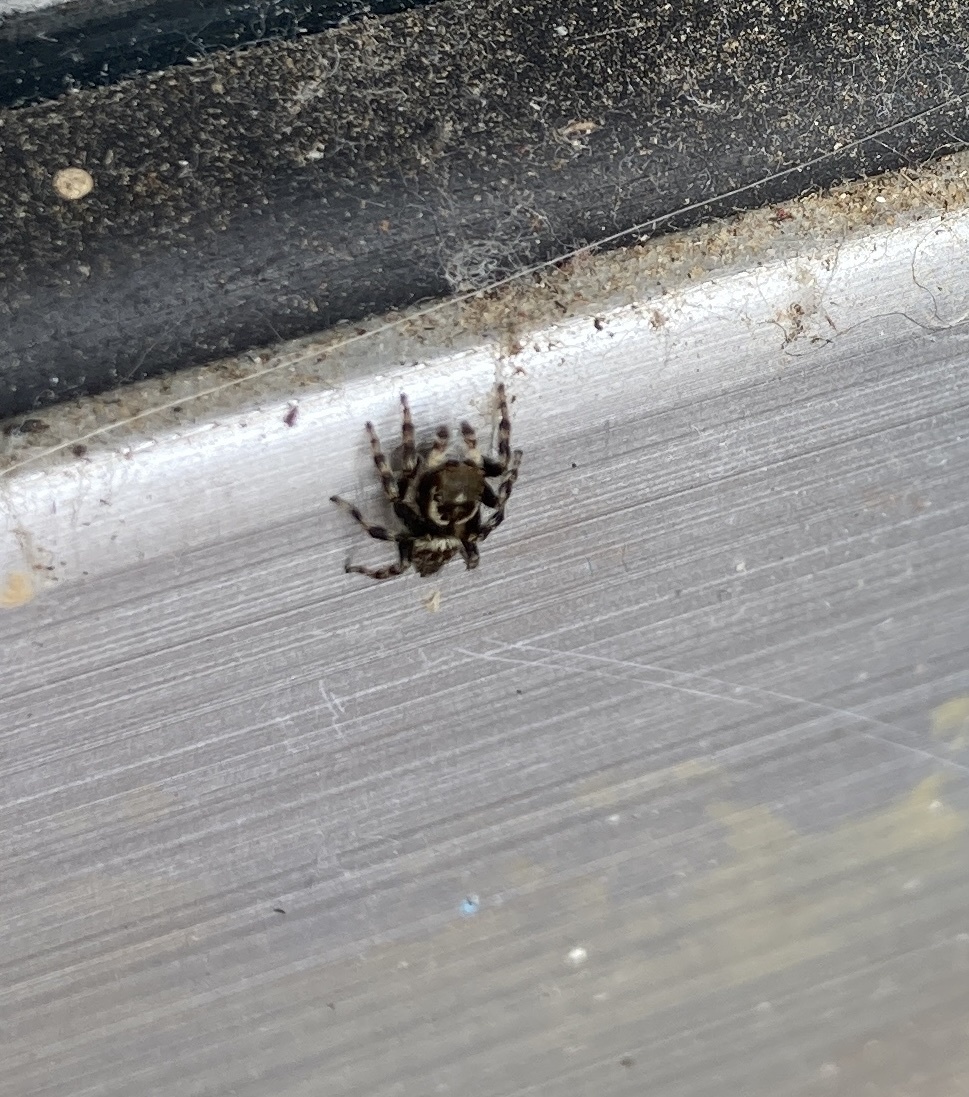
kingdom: Animalia
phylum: Arthropoda
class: Arachnida
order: Araneae
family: Salticidae
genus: Maratus
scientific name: Maratus griseus
